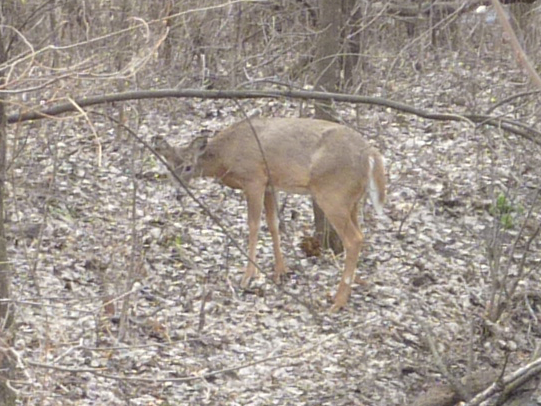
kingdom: Animalia
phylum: Chordata
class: Mammalia
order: Artiodactyla
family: Cervidae
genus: Odocoileus
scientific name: Odocoileus virginianus
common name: White-tailed deer
